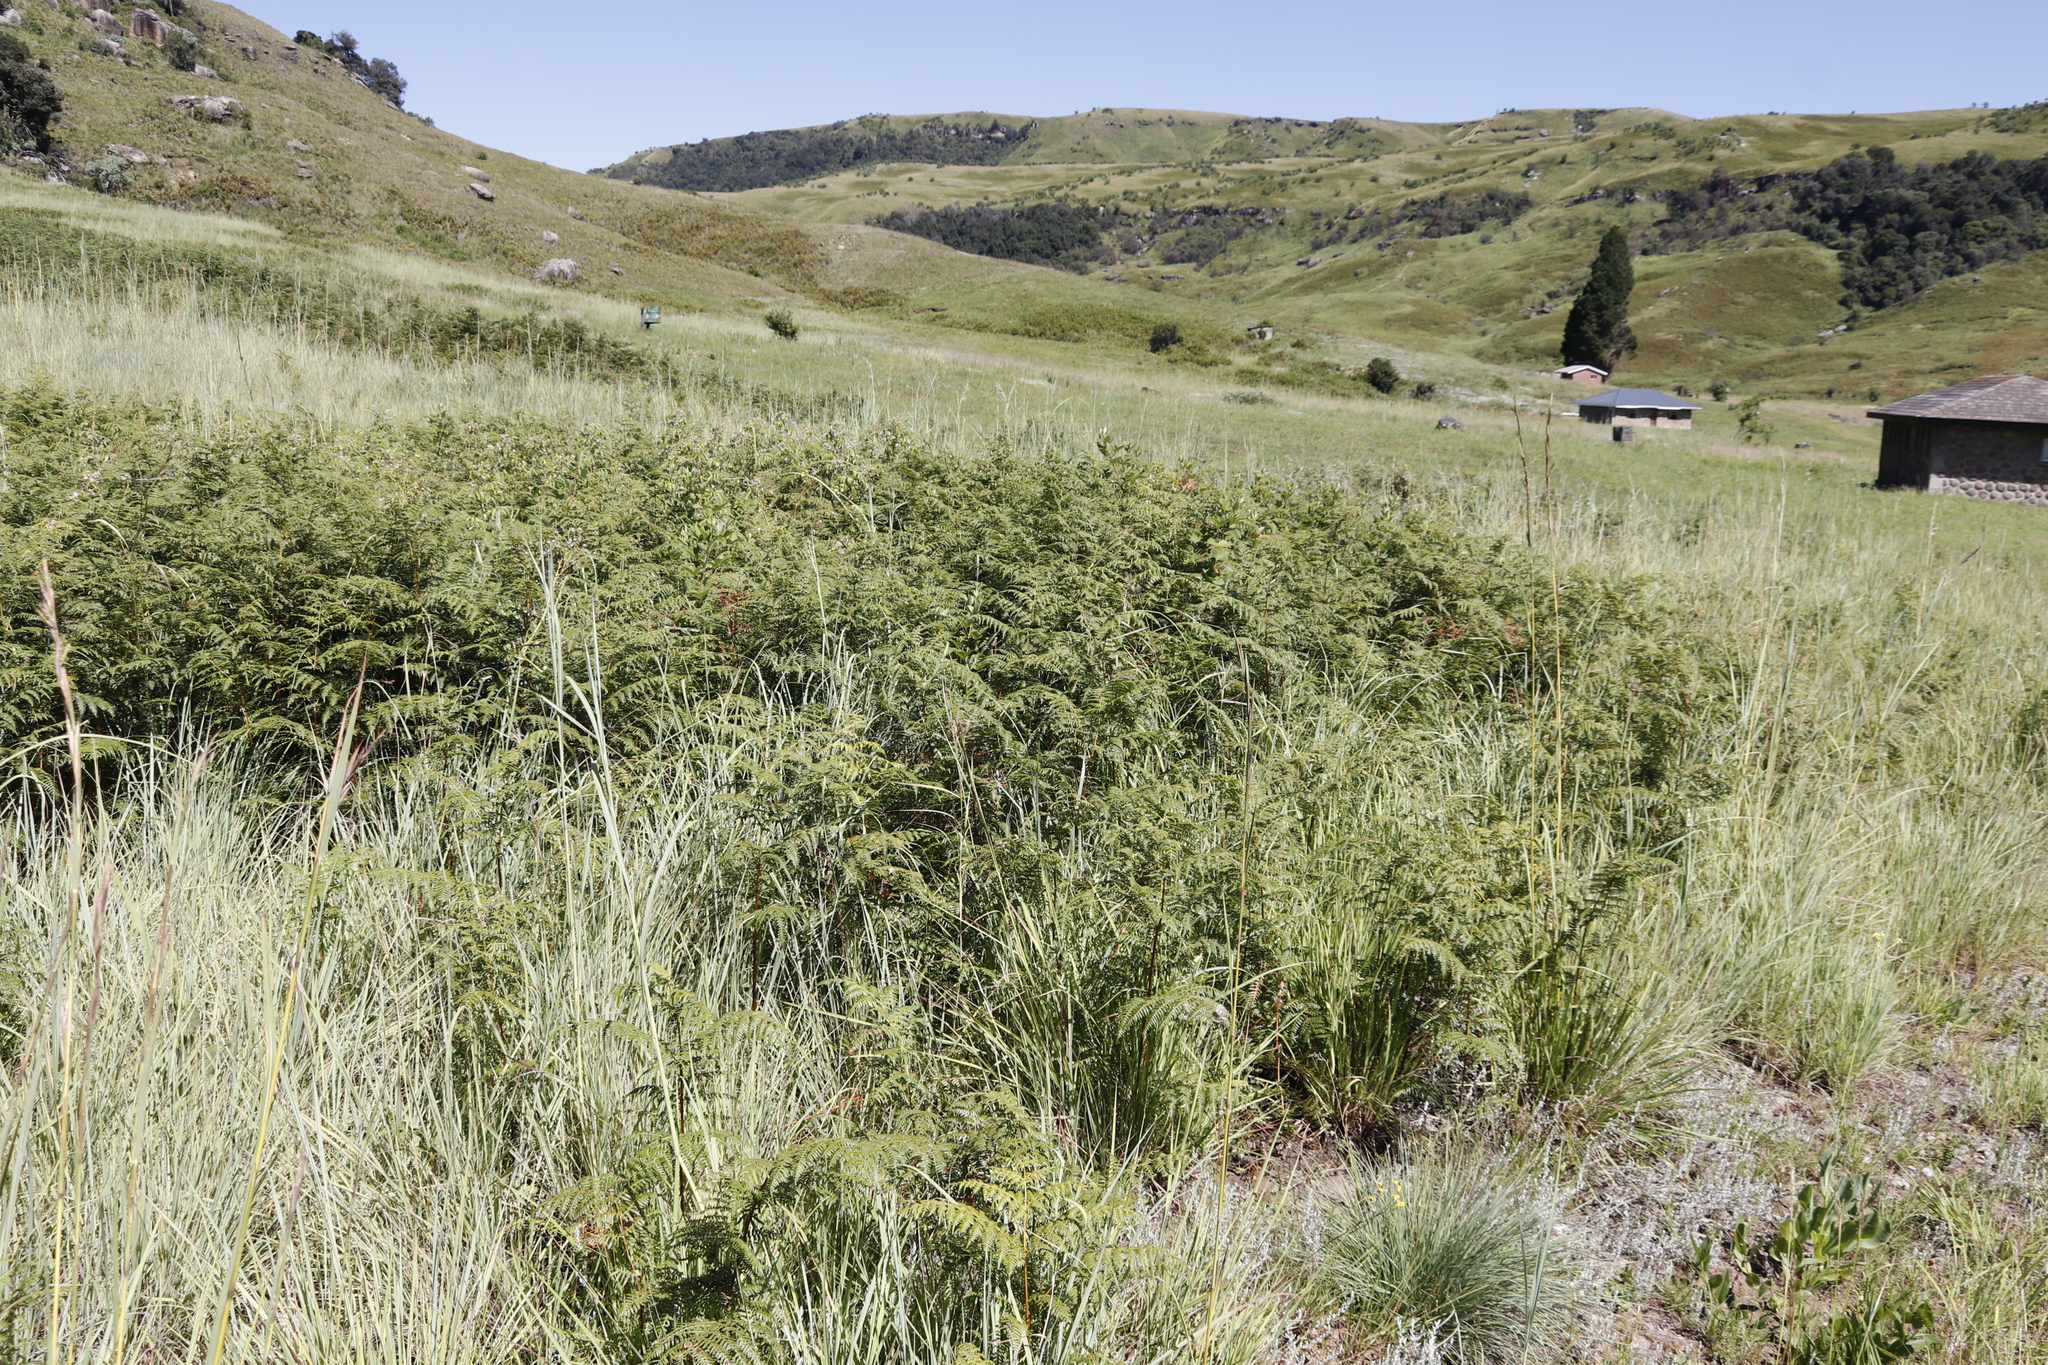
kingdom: Plantae
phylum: Tracheophyta
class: Polypodiopsida
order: Polypodiales
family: Dennstaedtiaceae
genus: Pteridium
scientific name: Pteridium aquilinum
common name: Bracken
